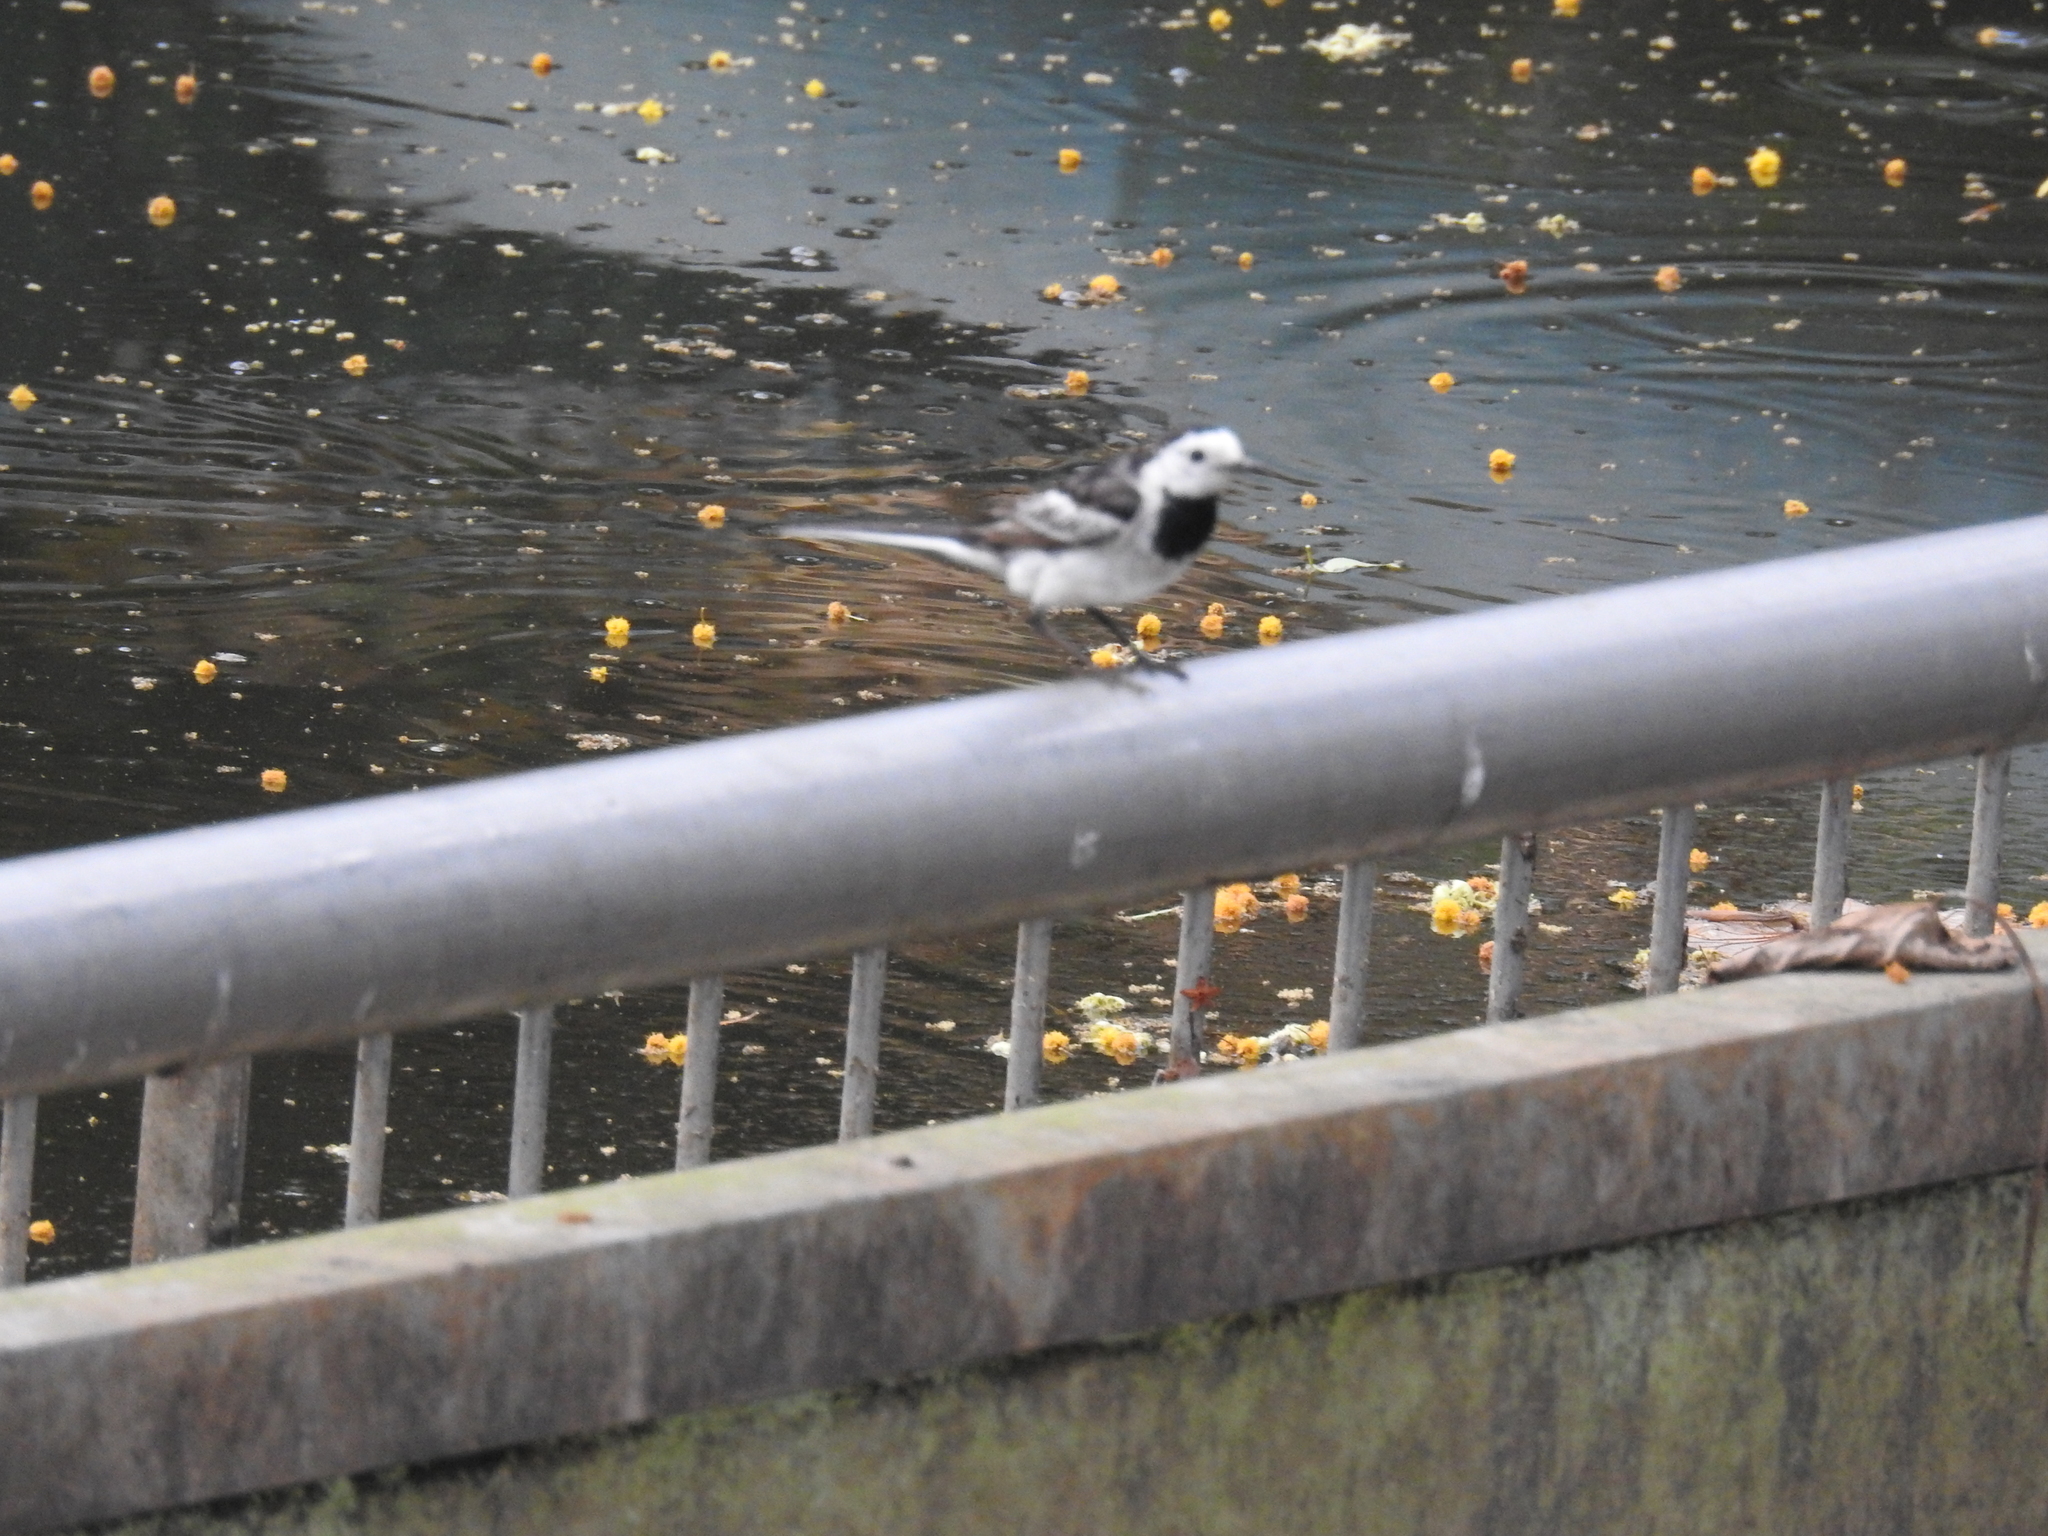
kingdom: Animalia
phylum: Chordata
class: Aves
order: Passeriformes
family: Motacillidae
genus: Motacilla
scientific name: Motacilla alba
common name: White wagtail
